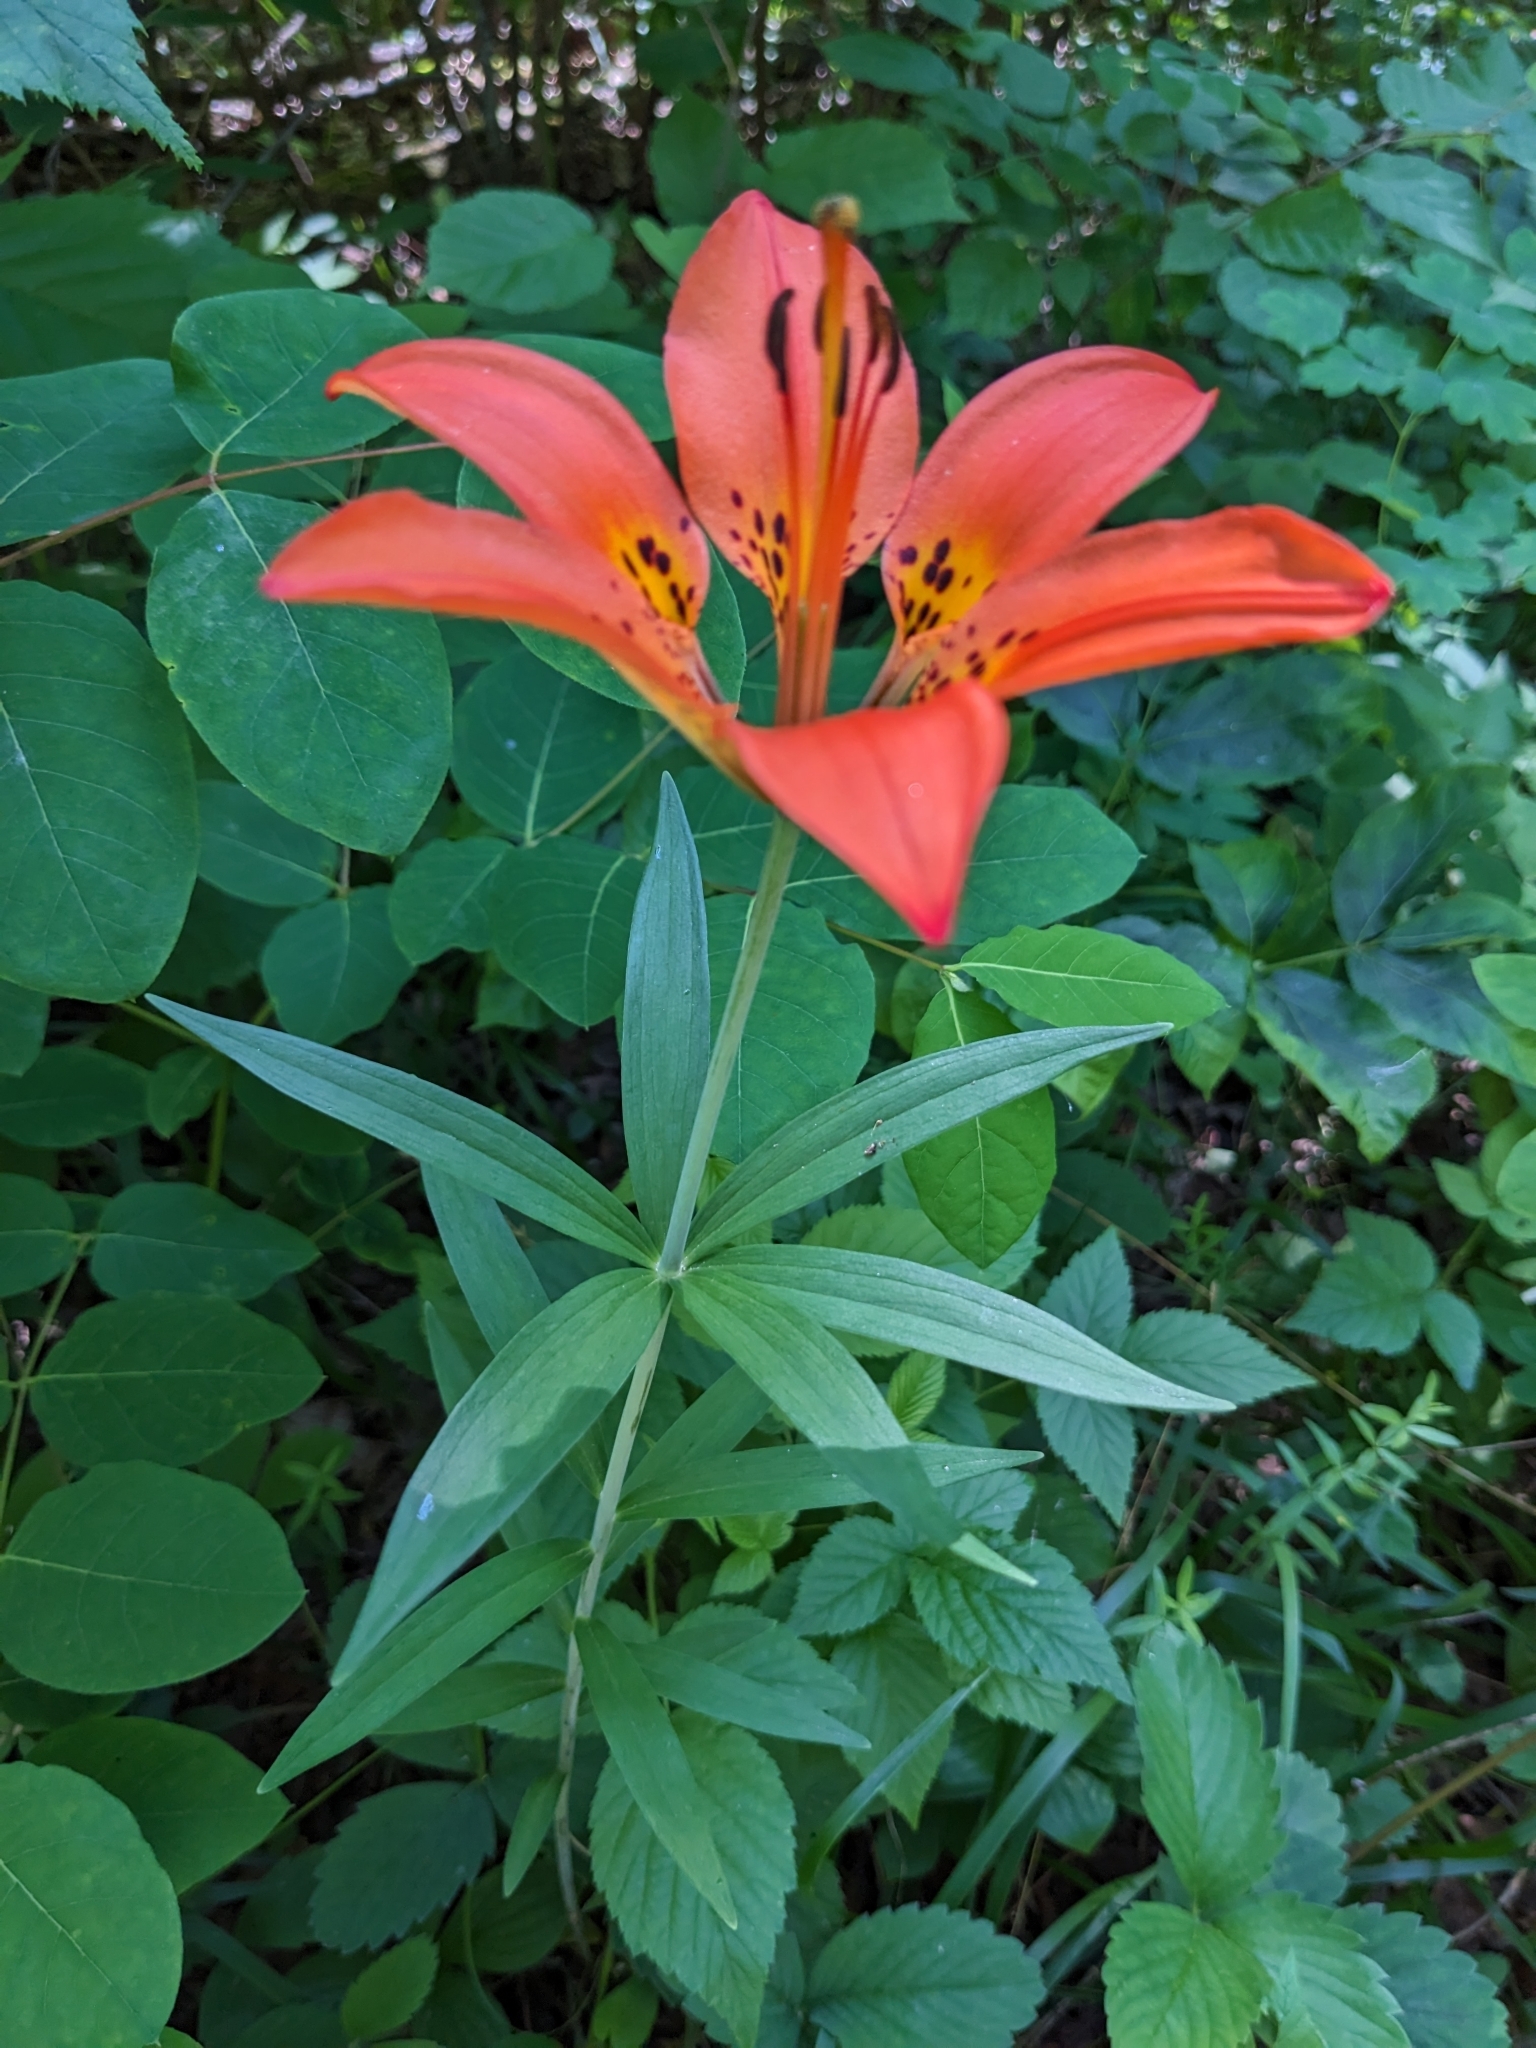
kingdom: Plantae
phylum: Tracheophyta
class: Liliopsida
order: Liliales
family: Liliaceae
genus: Lilium
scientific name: Lilium philadelphicum
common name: Red lily
